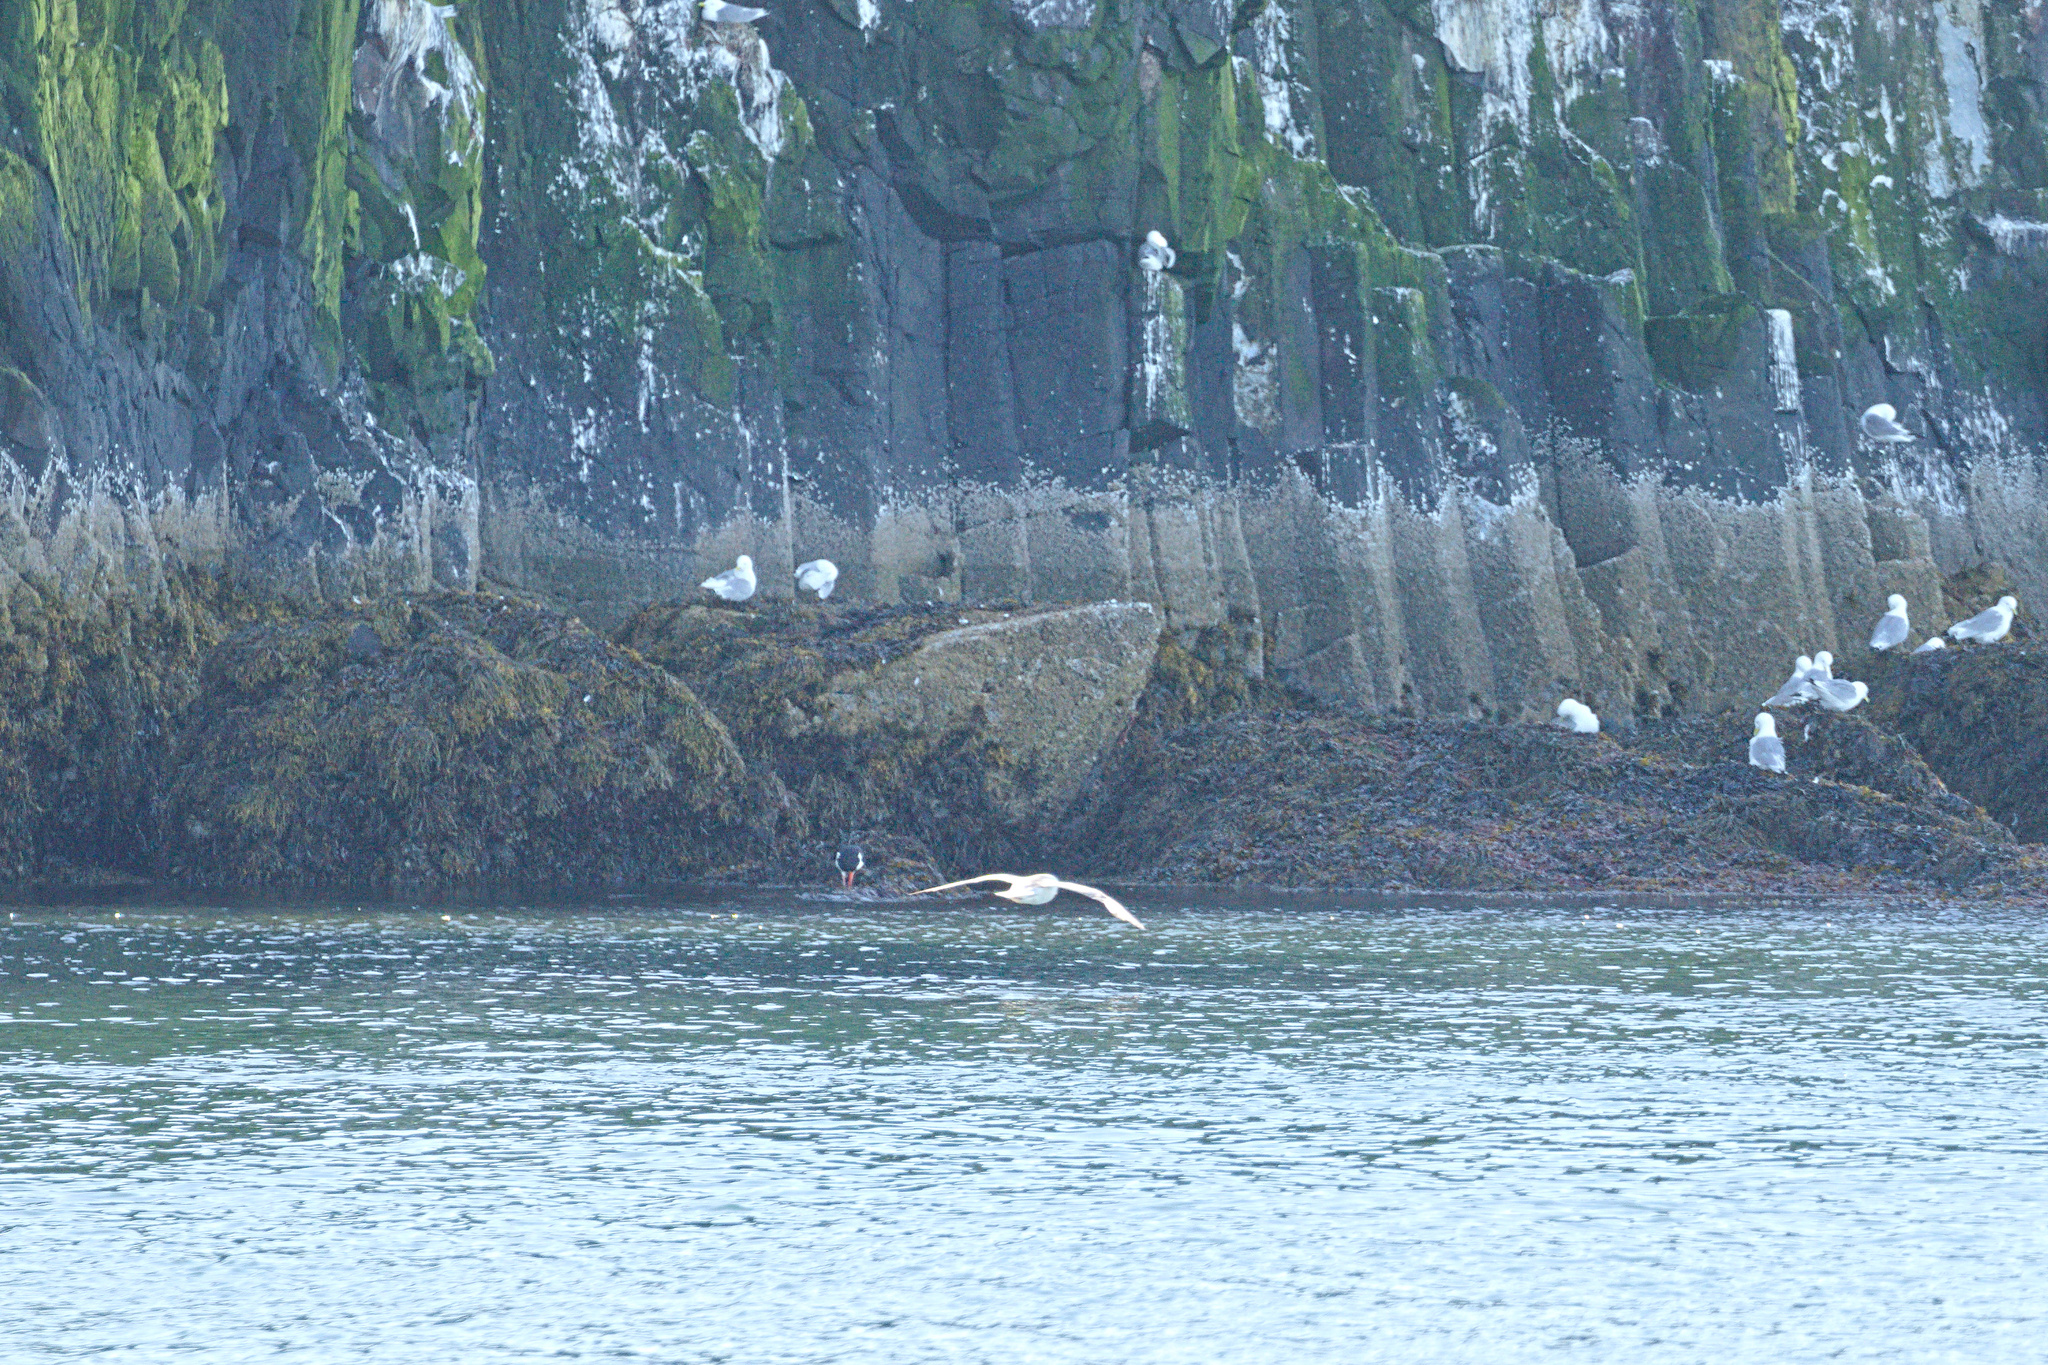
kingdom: Animalia
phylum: Chordata
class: Aves
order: Charadriiformes
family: Haematopodidae
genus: Haematopus
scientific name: Haematopus ostralegus
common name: Eurasian oystercatcher
